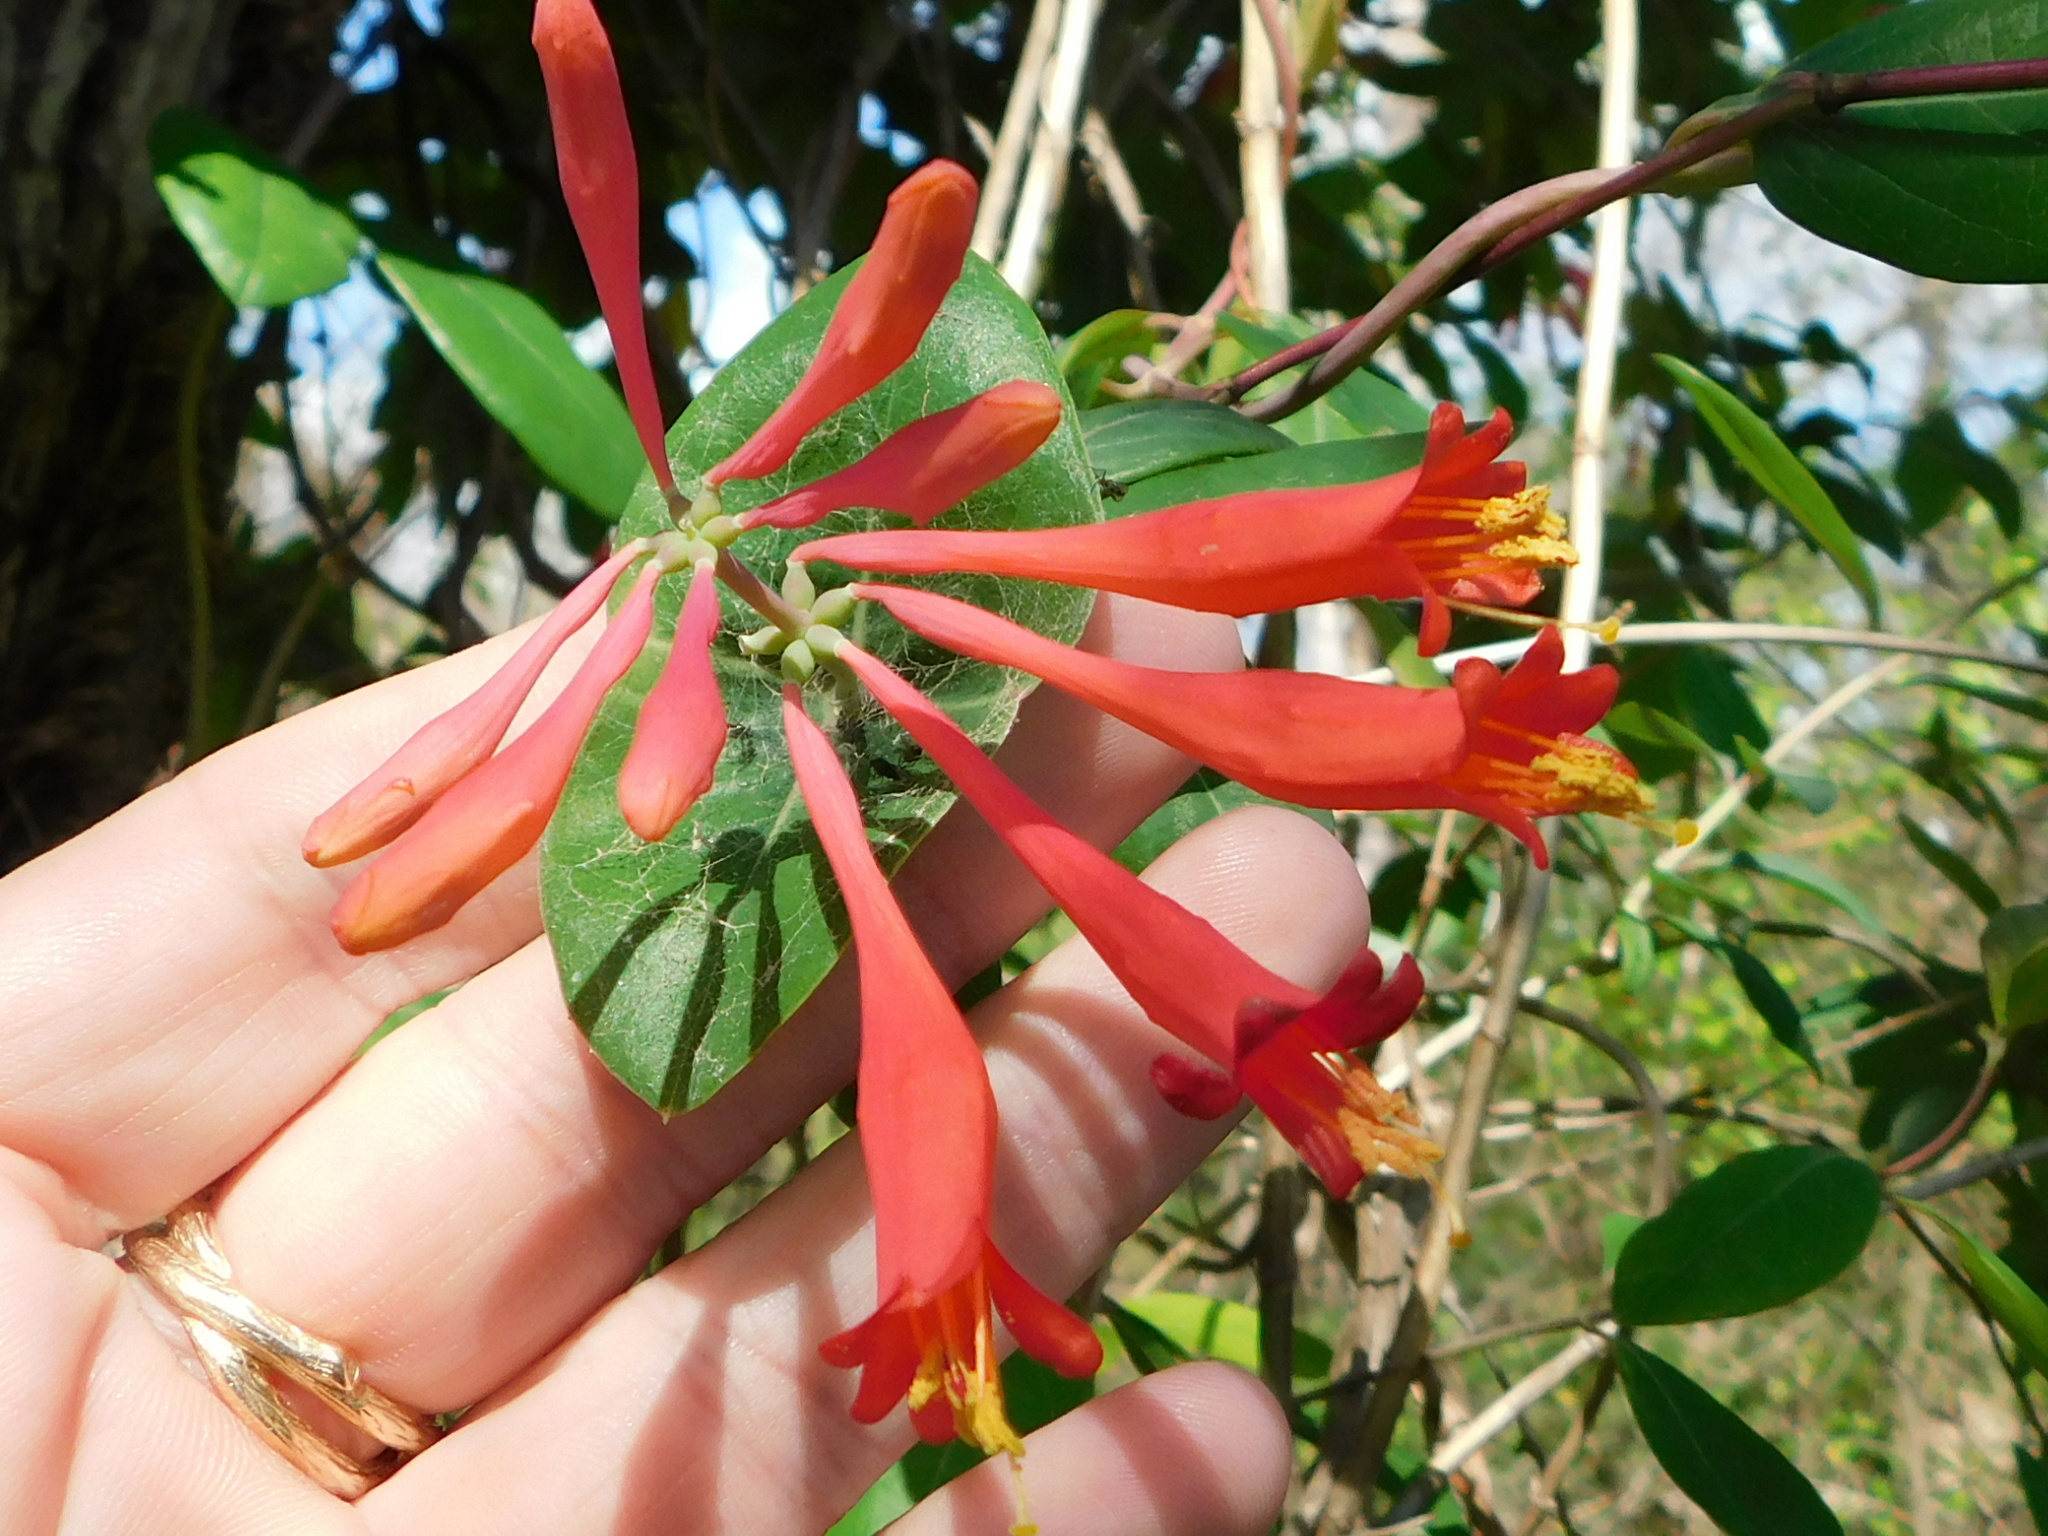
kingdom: Plantae
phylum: Tracheophyta
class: Magnoliopsida
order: Dipsacales
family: Caprifoliaceae
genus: Lonicera
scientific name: Lonicera sempervirens
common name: Coral honeysuckle
